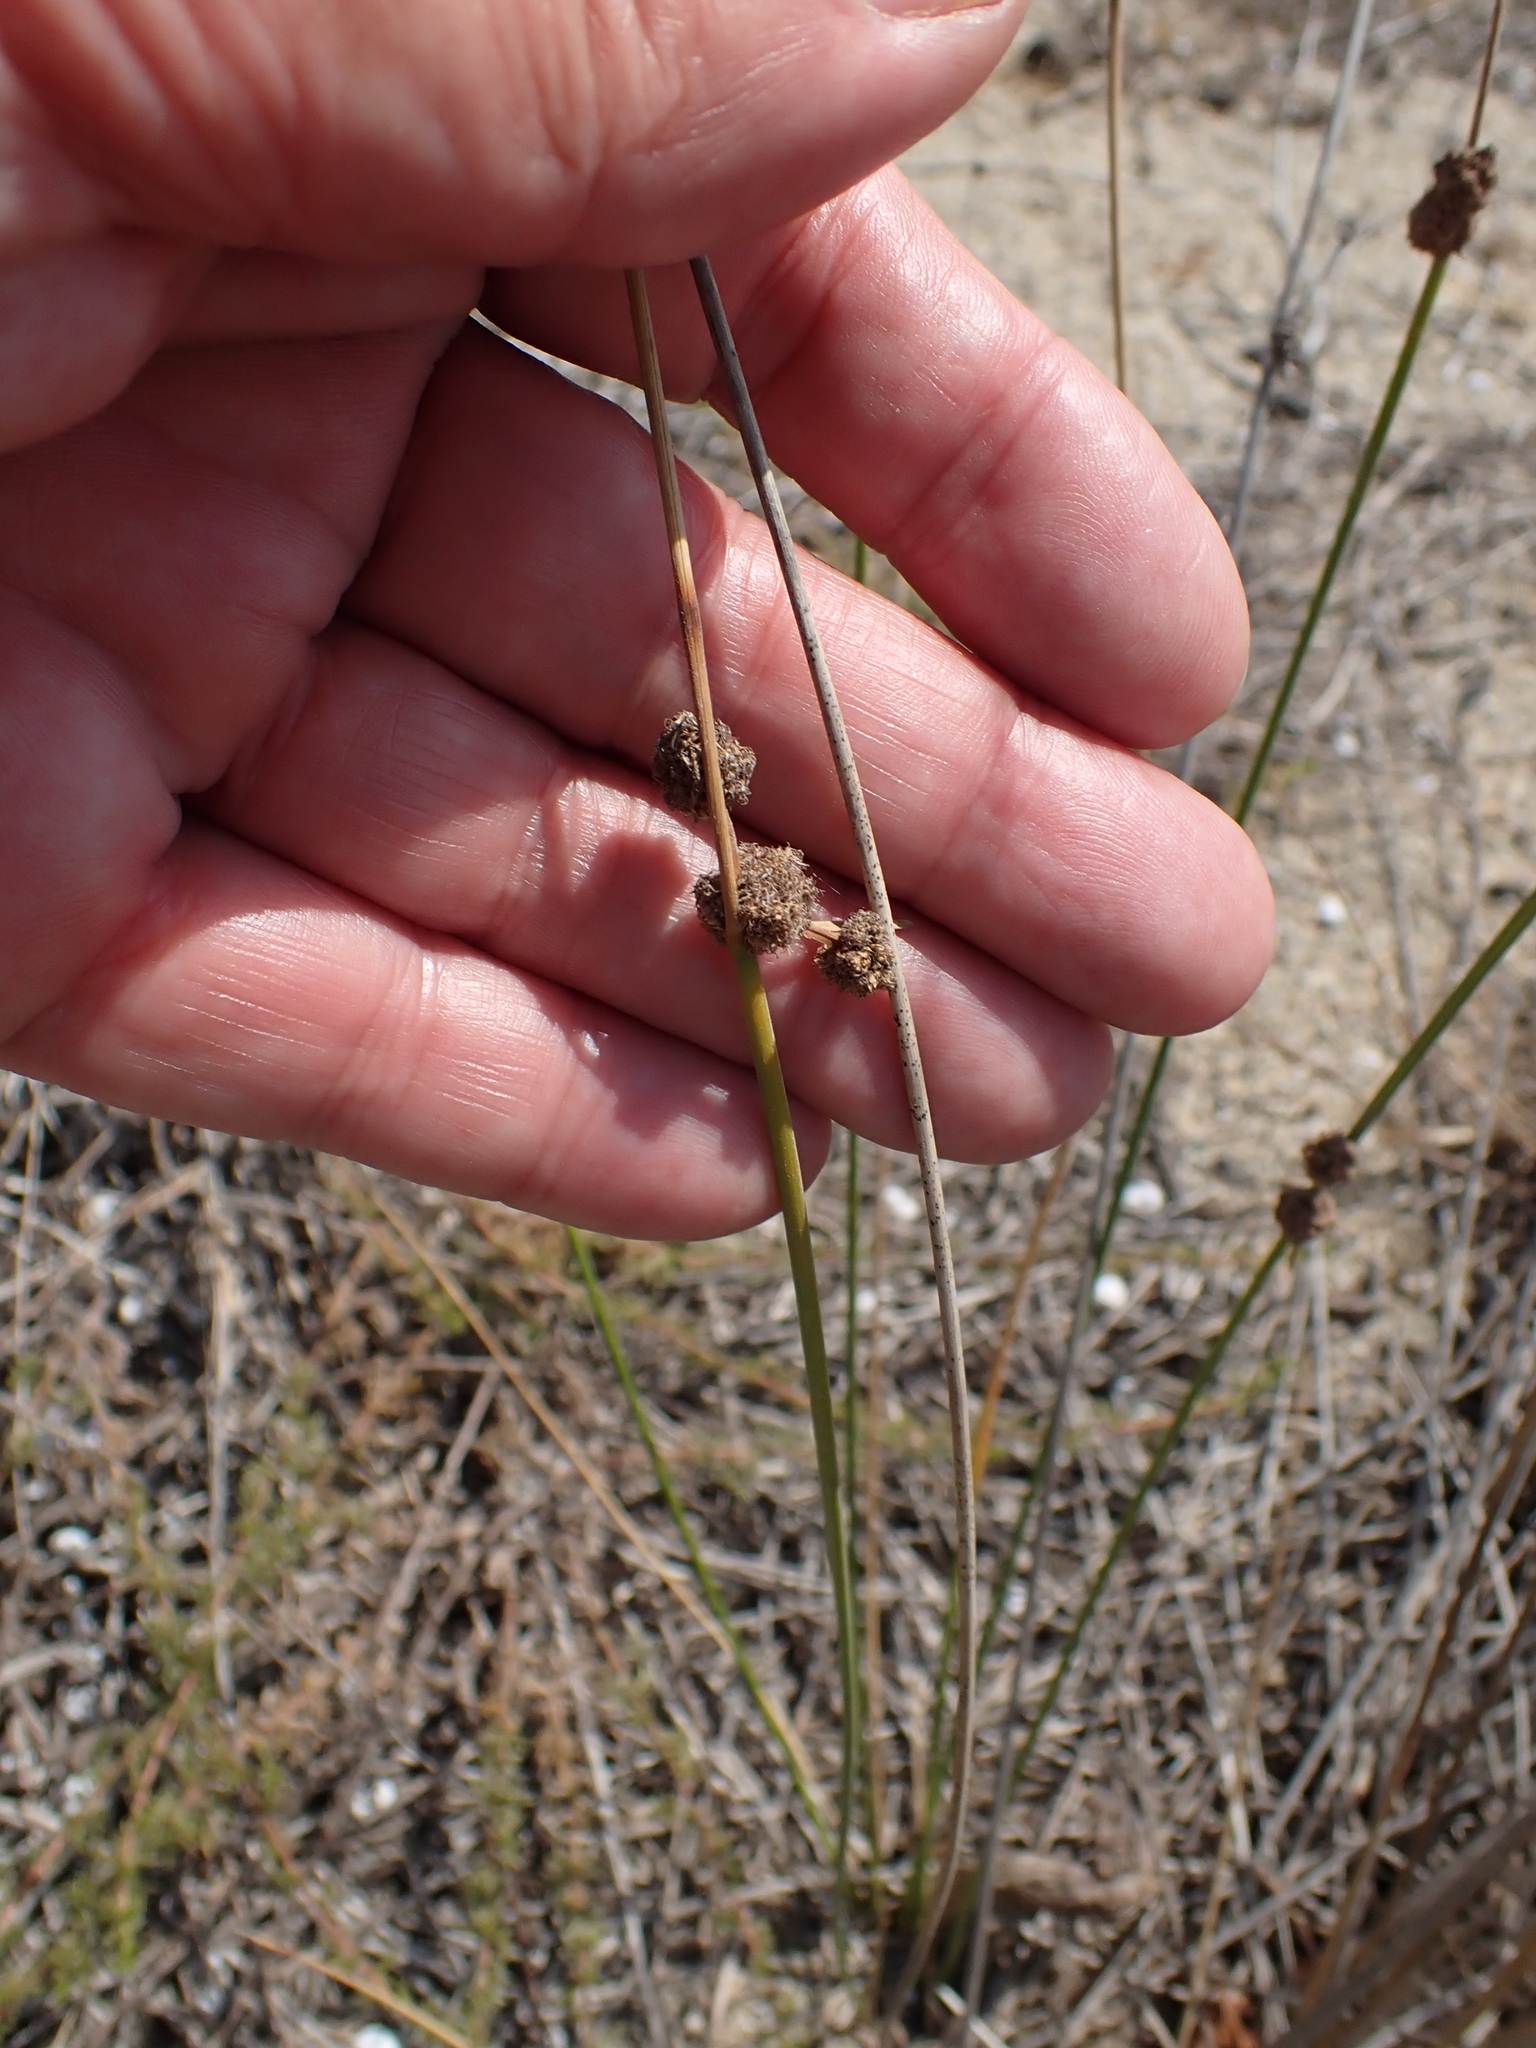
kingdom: Plantae
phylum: Tracheophyta
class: Liliopsida
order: Poales
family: Cyperaceae
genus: Scirpoides
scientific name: Scirpoides holoschoenus
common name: Round-headed club-rush
